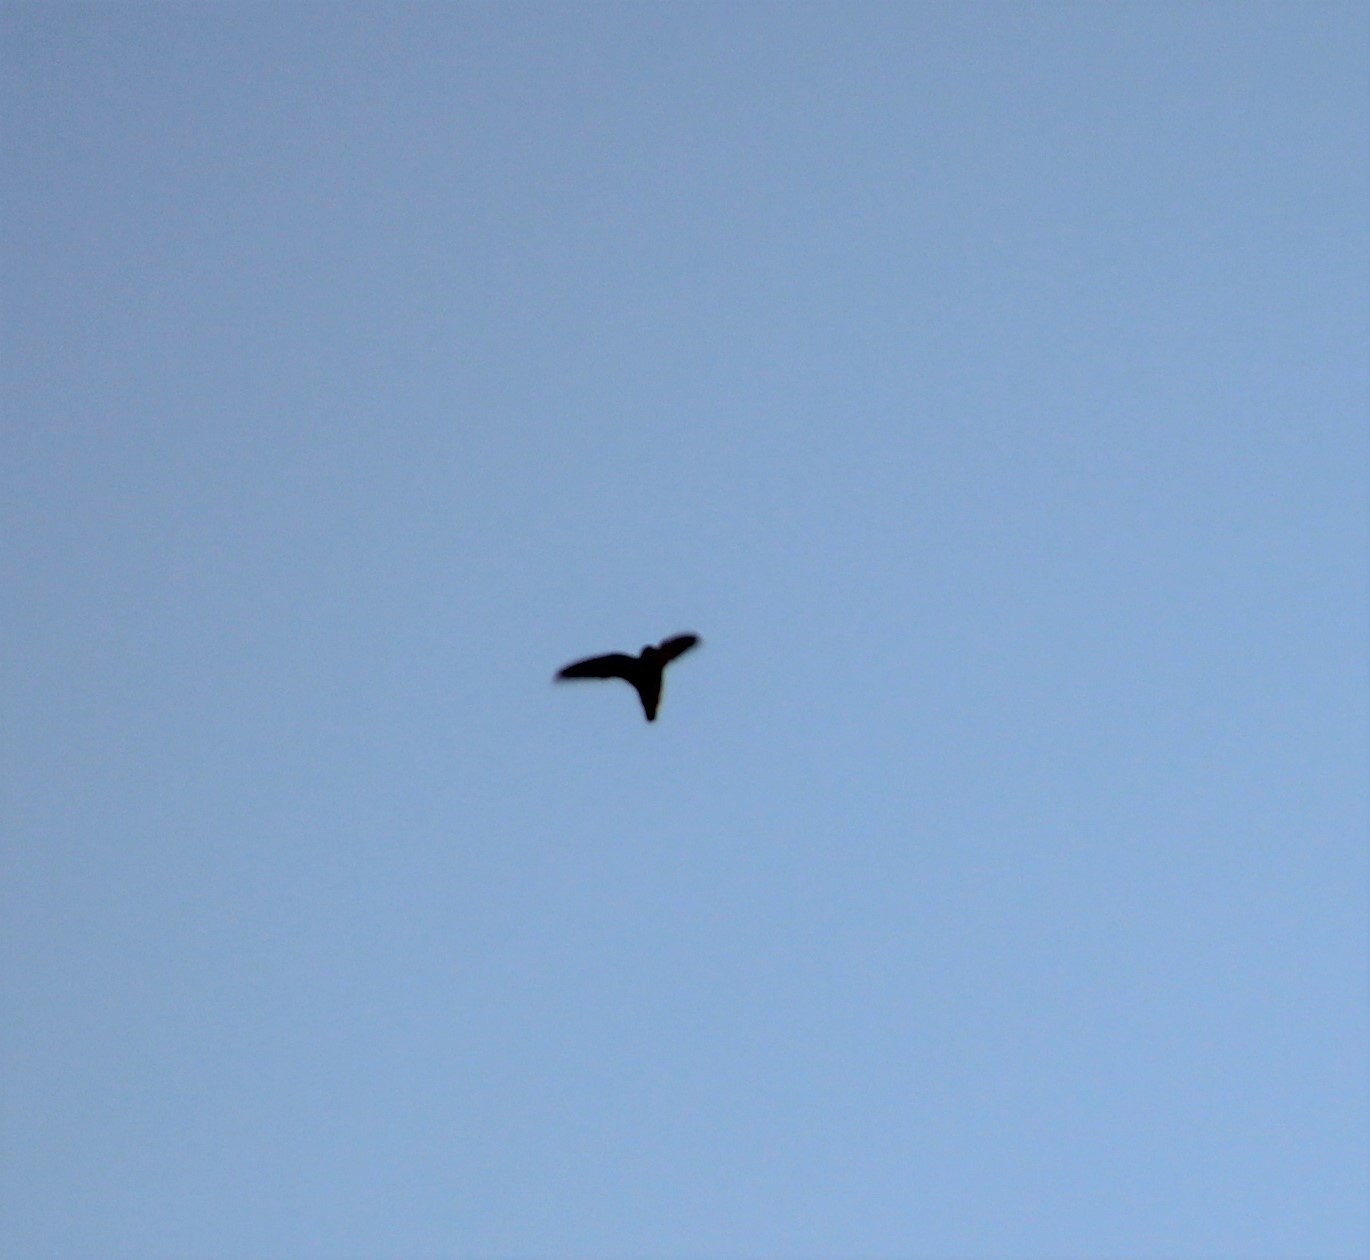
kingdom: Animalia
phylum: Chordata
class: Aves
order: Apodiformes
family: Apodidae
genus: Chaetura
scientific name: Chaetura vauxi
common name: Vaux's swift
